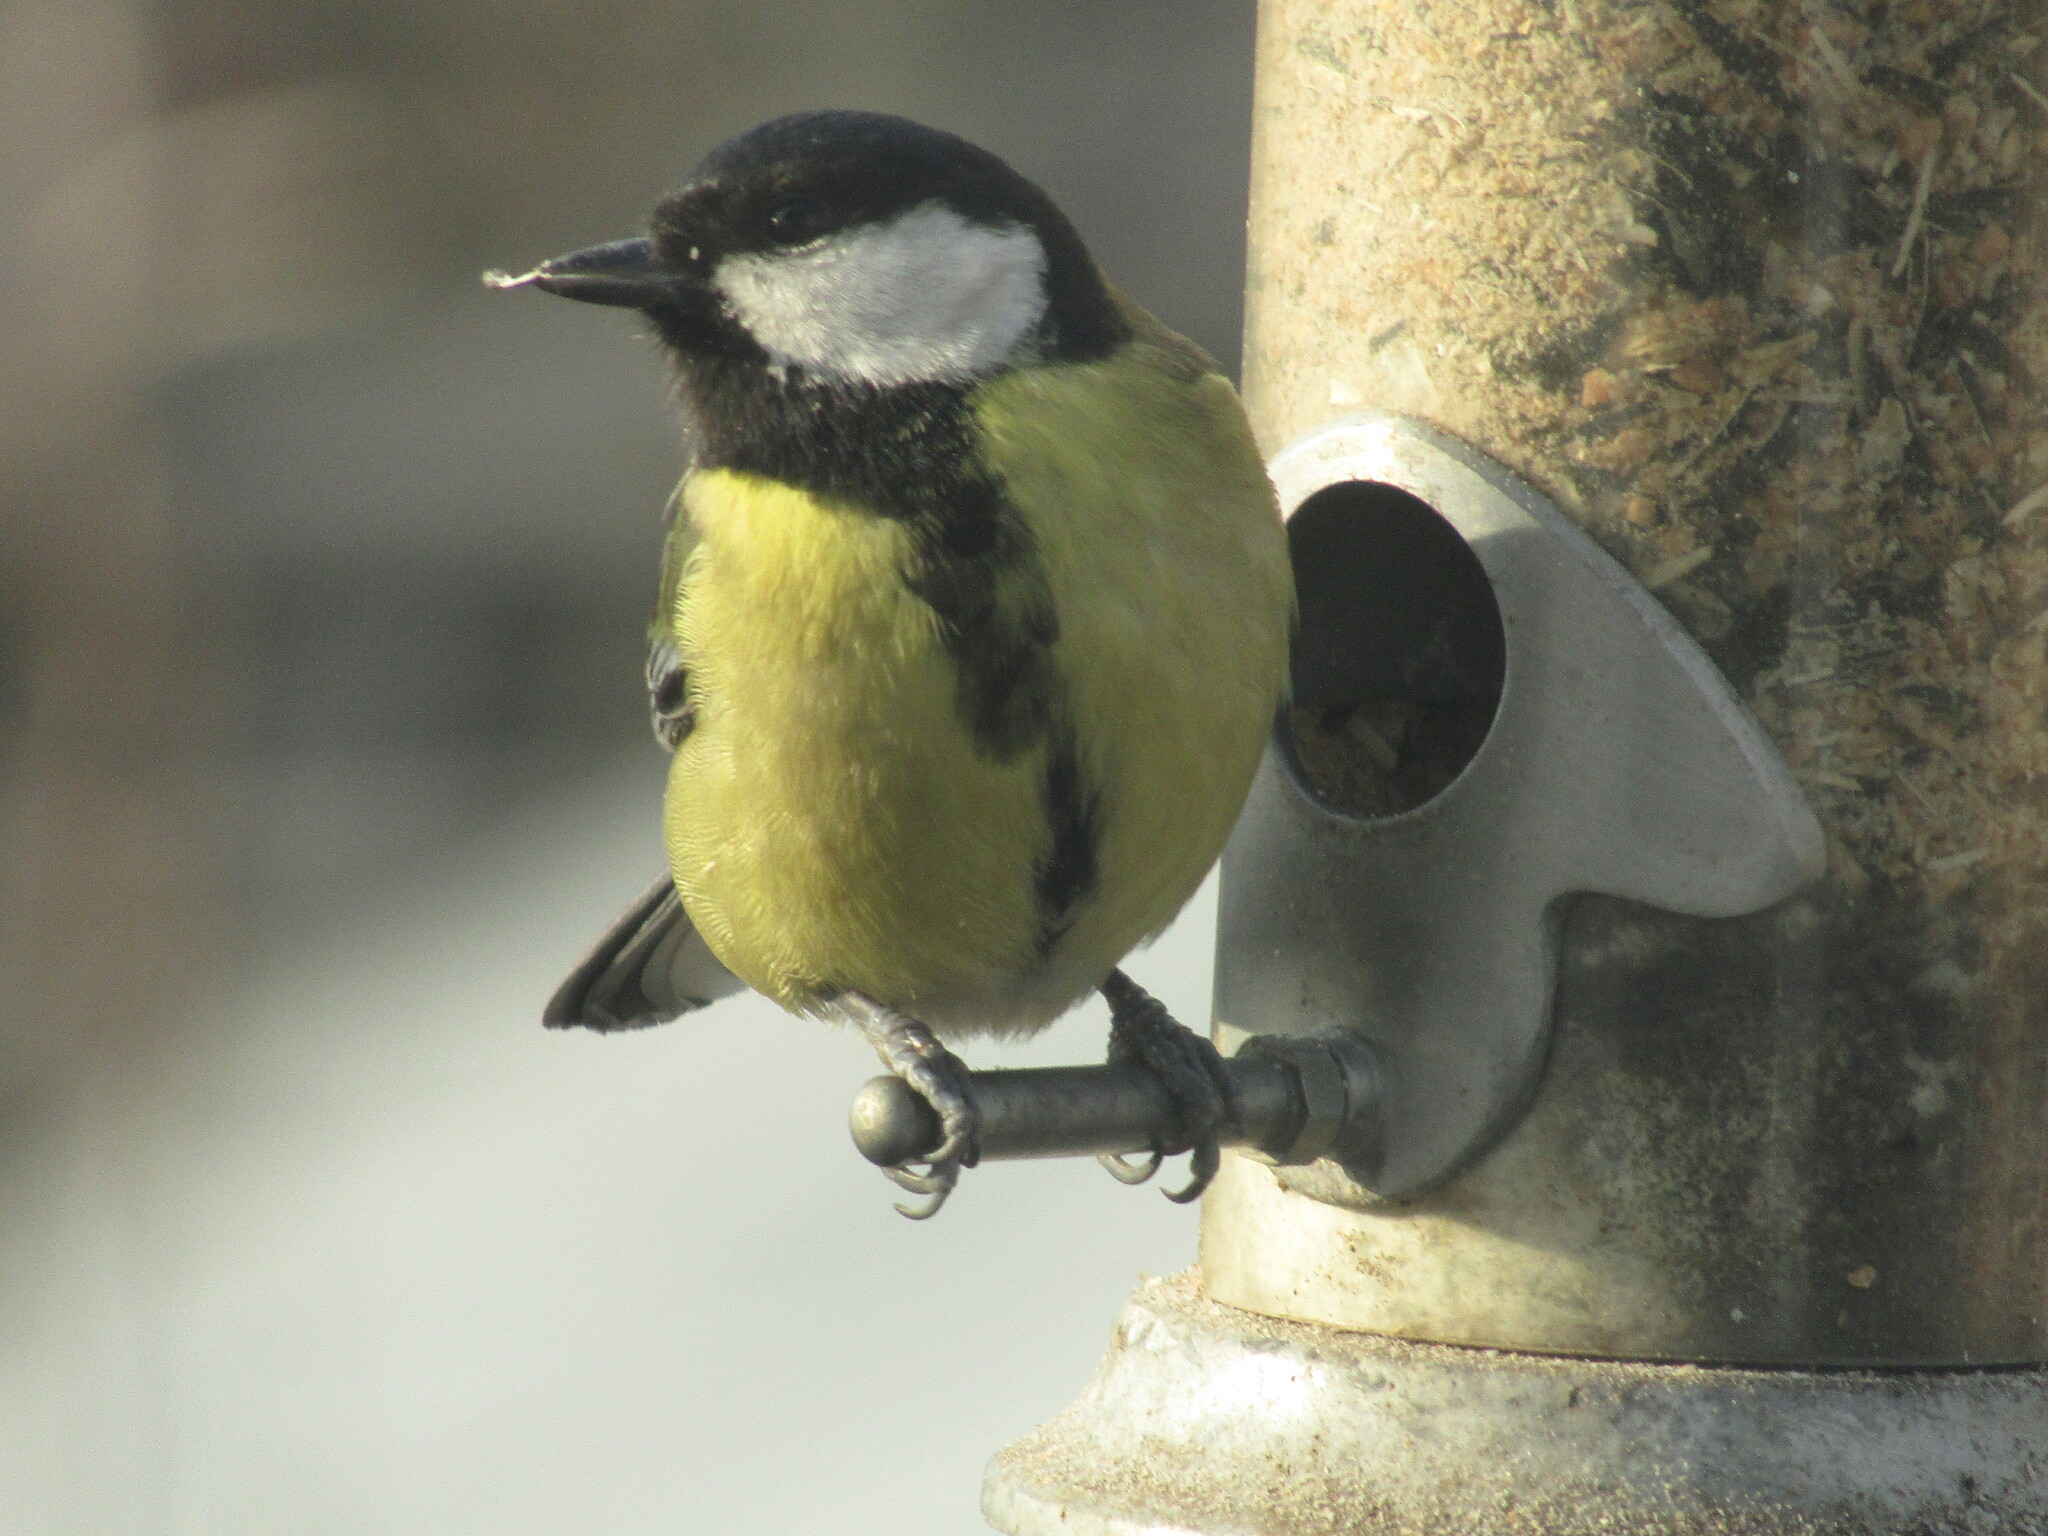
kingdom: Animalia
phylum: Chordata
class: Aves
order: Passeriformes
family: Paridae
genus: Parus
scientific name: Parus major
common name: Great tit
